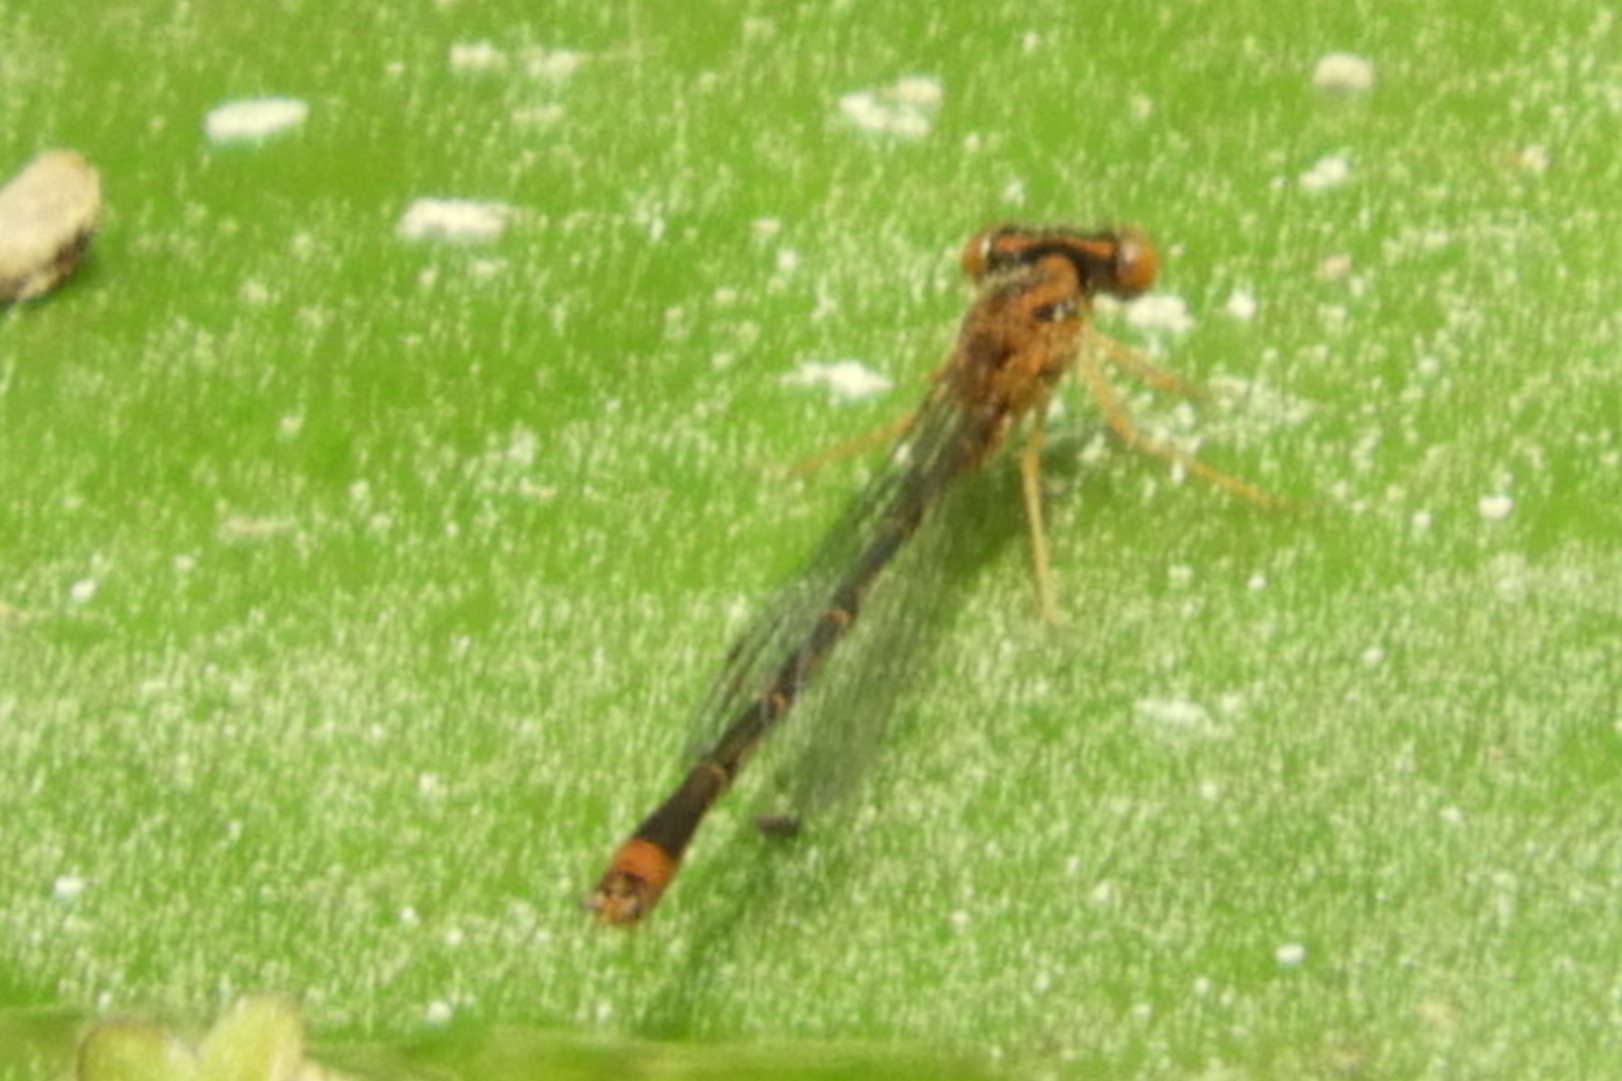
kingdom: Animalia
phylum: Arthropoda
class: Insecta
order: Odonata
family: Coenagrionidae
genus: Enallagma
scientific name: Enallagma signatum
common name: Orange bluet
